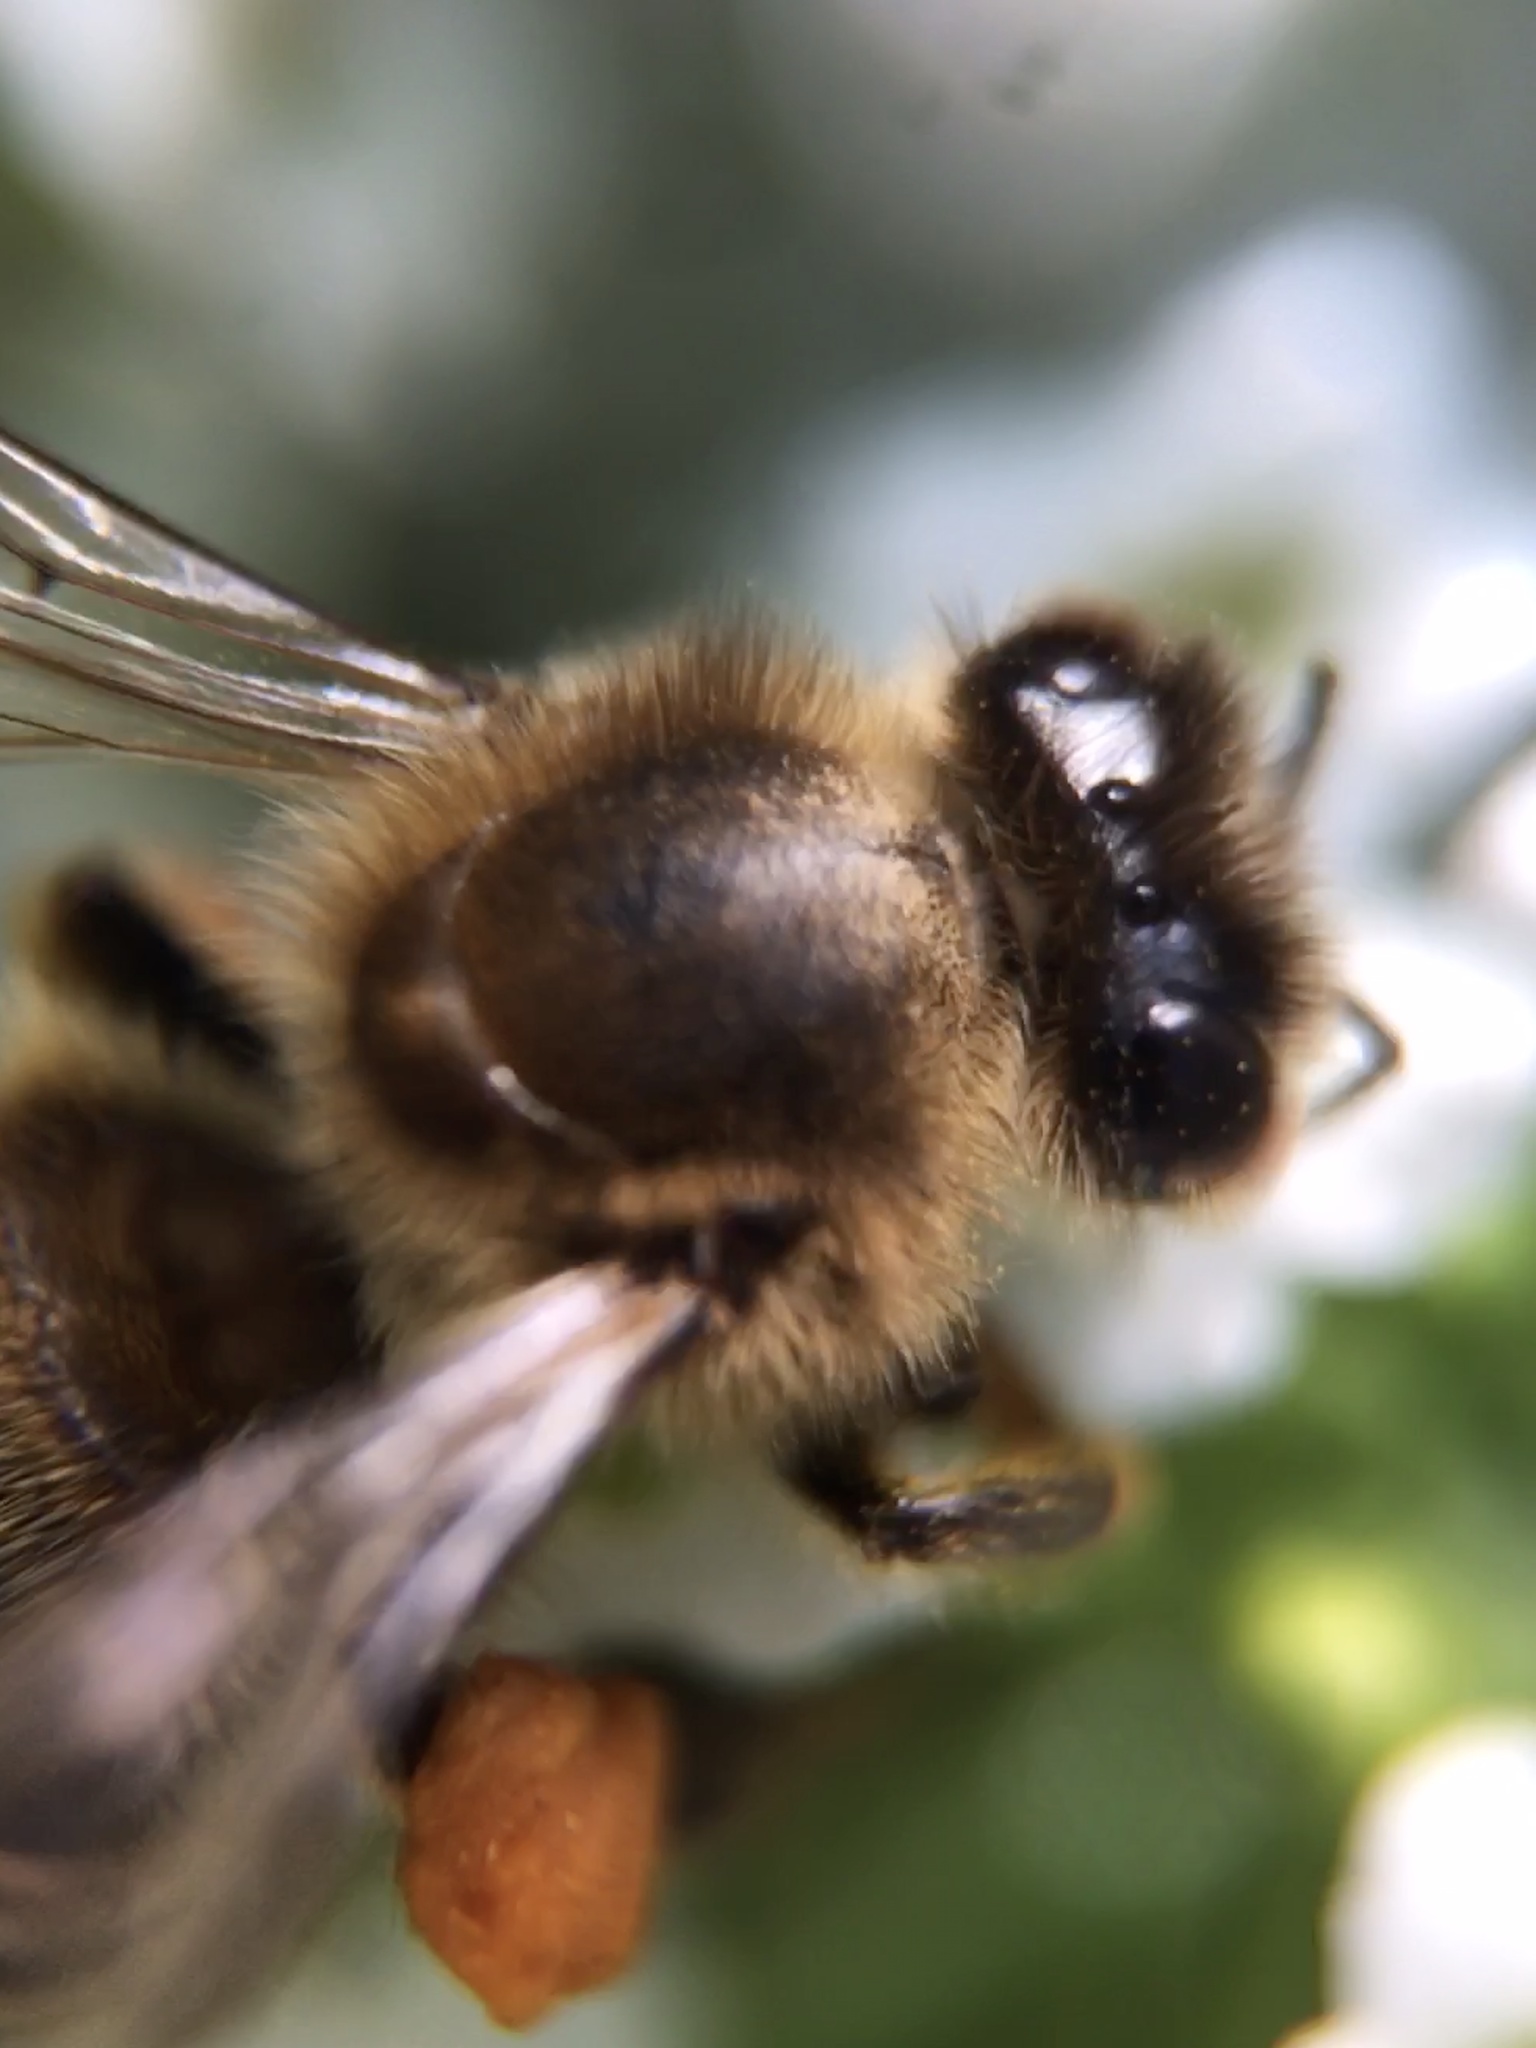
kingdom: Animalia
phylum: Arthropoda
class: Insecta
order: Hymenoptera
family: Apidae
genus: Apis
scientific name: Apis mellifera
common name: Honey bee
